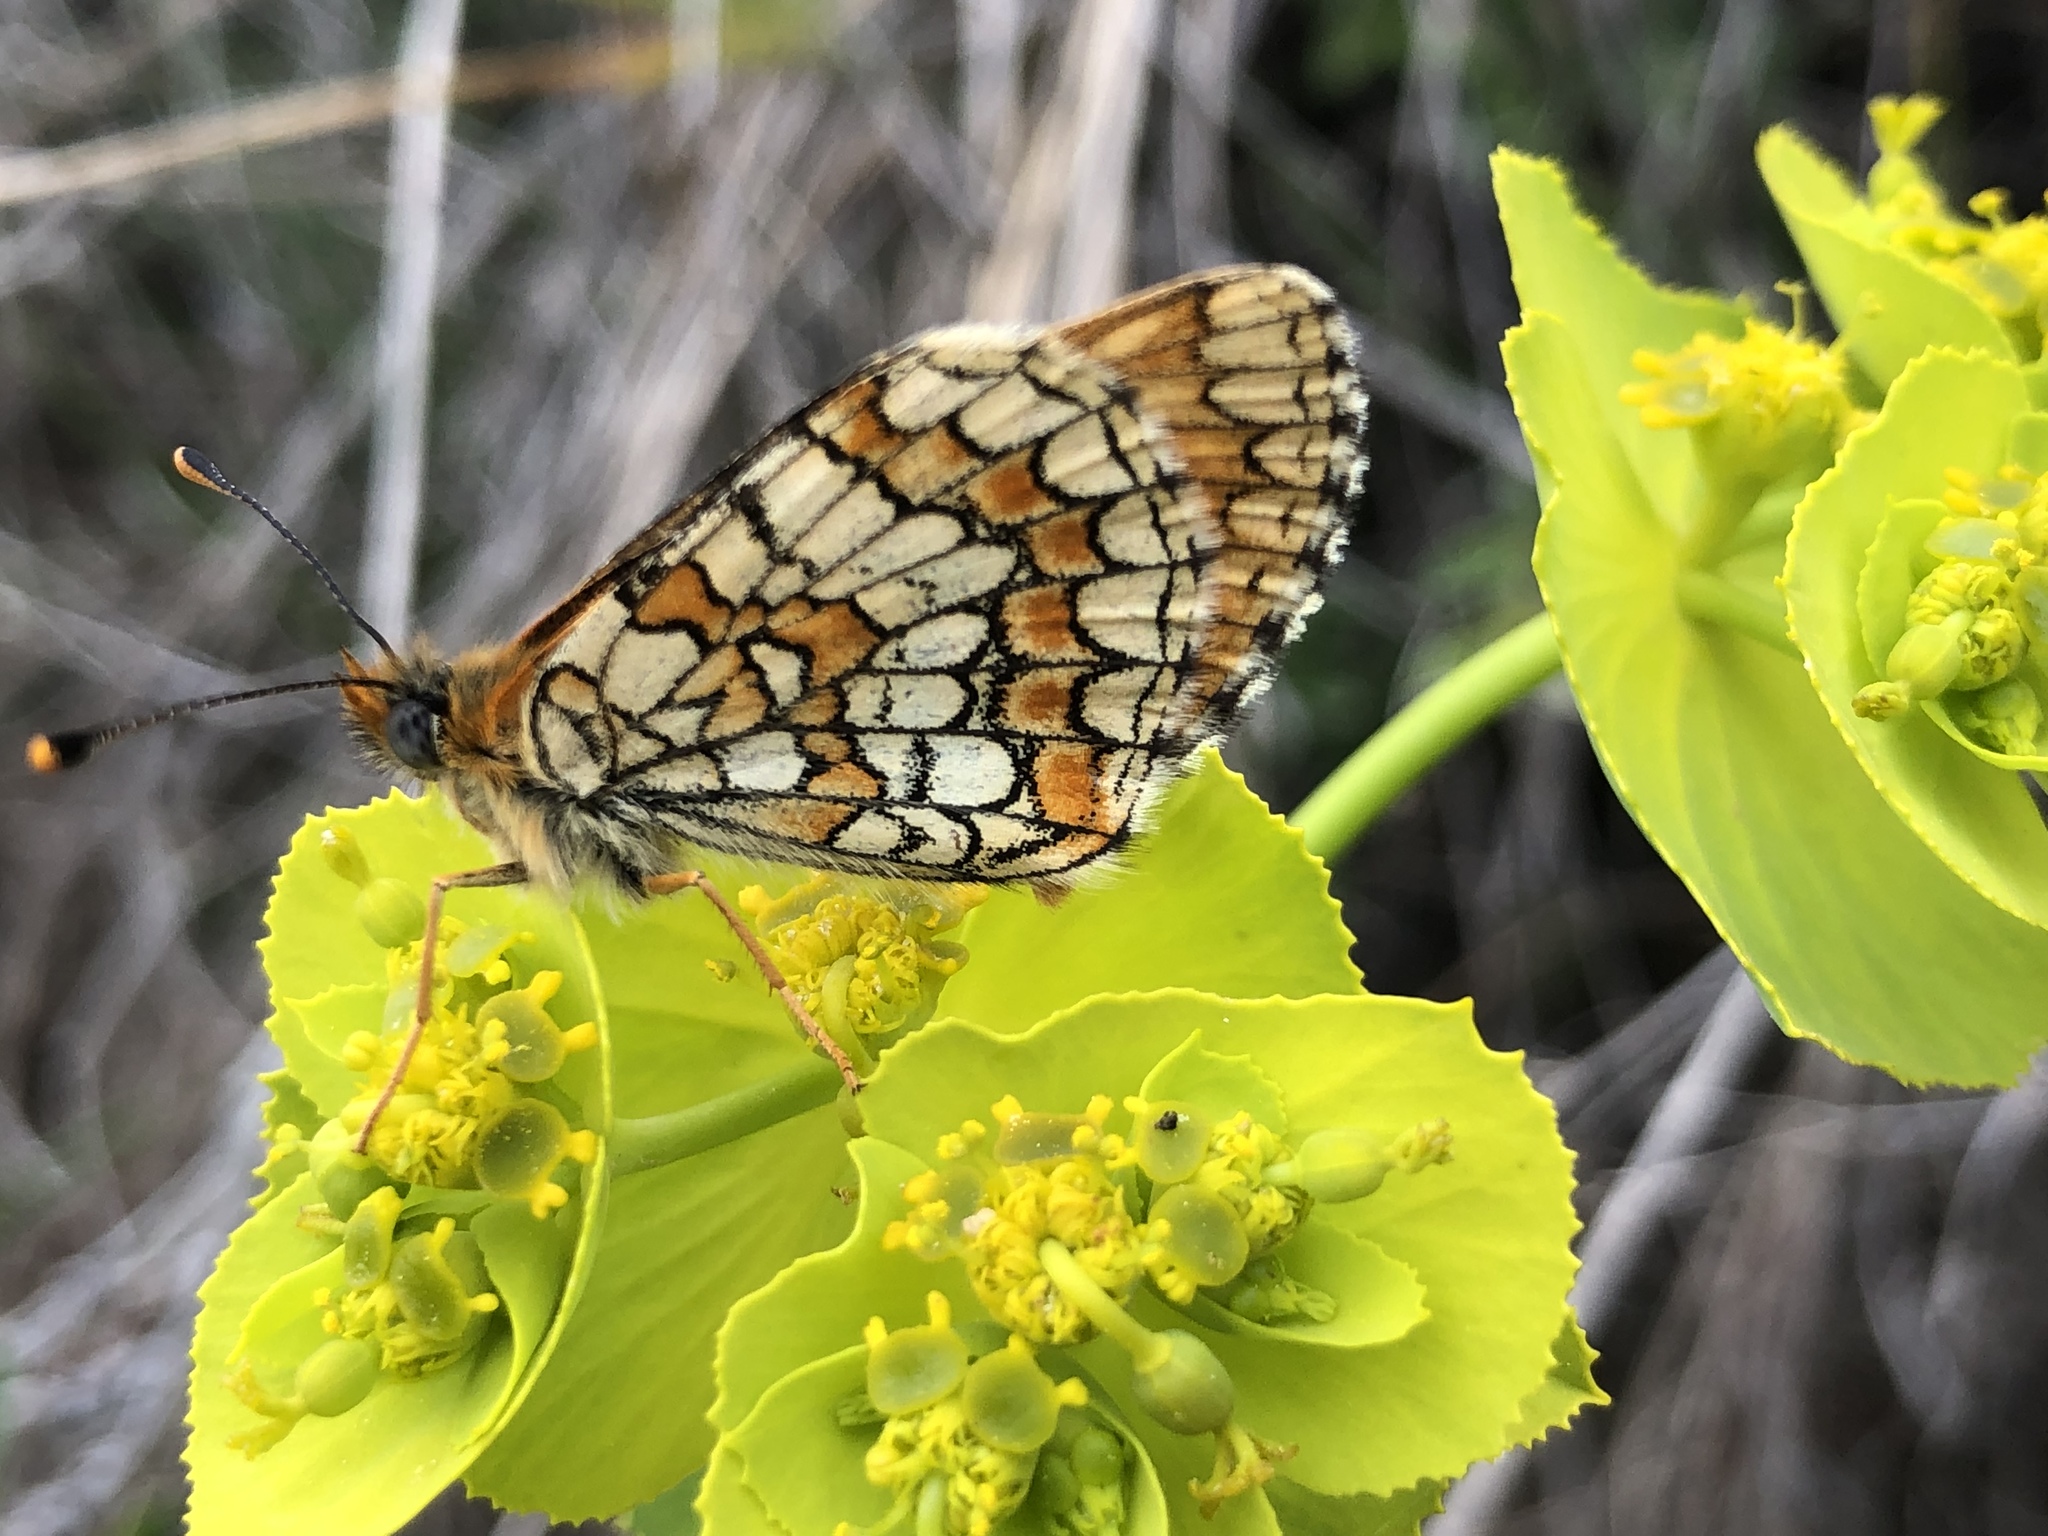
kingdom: Animalia
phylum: Arthropoda
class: Insecta
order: Lepidoptera
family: Nymphalidae
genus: Melitaea
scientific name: Melitaea deione
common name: Provençal fritillary
